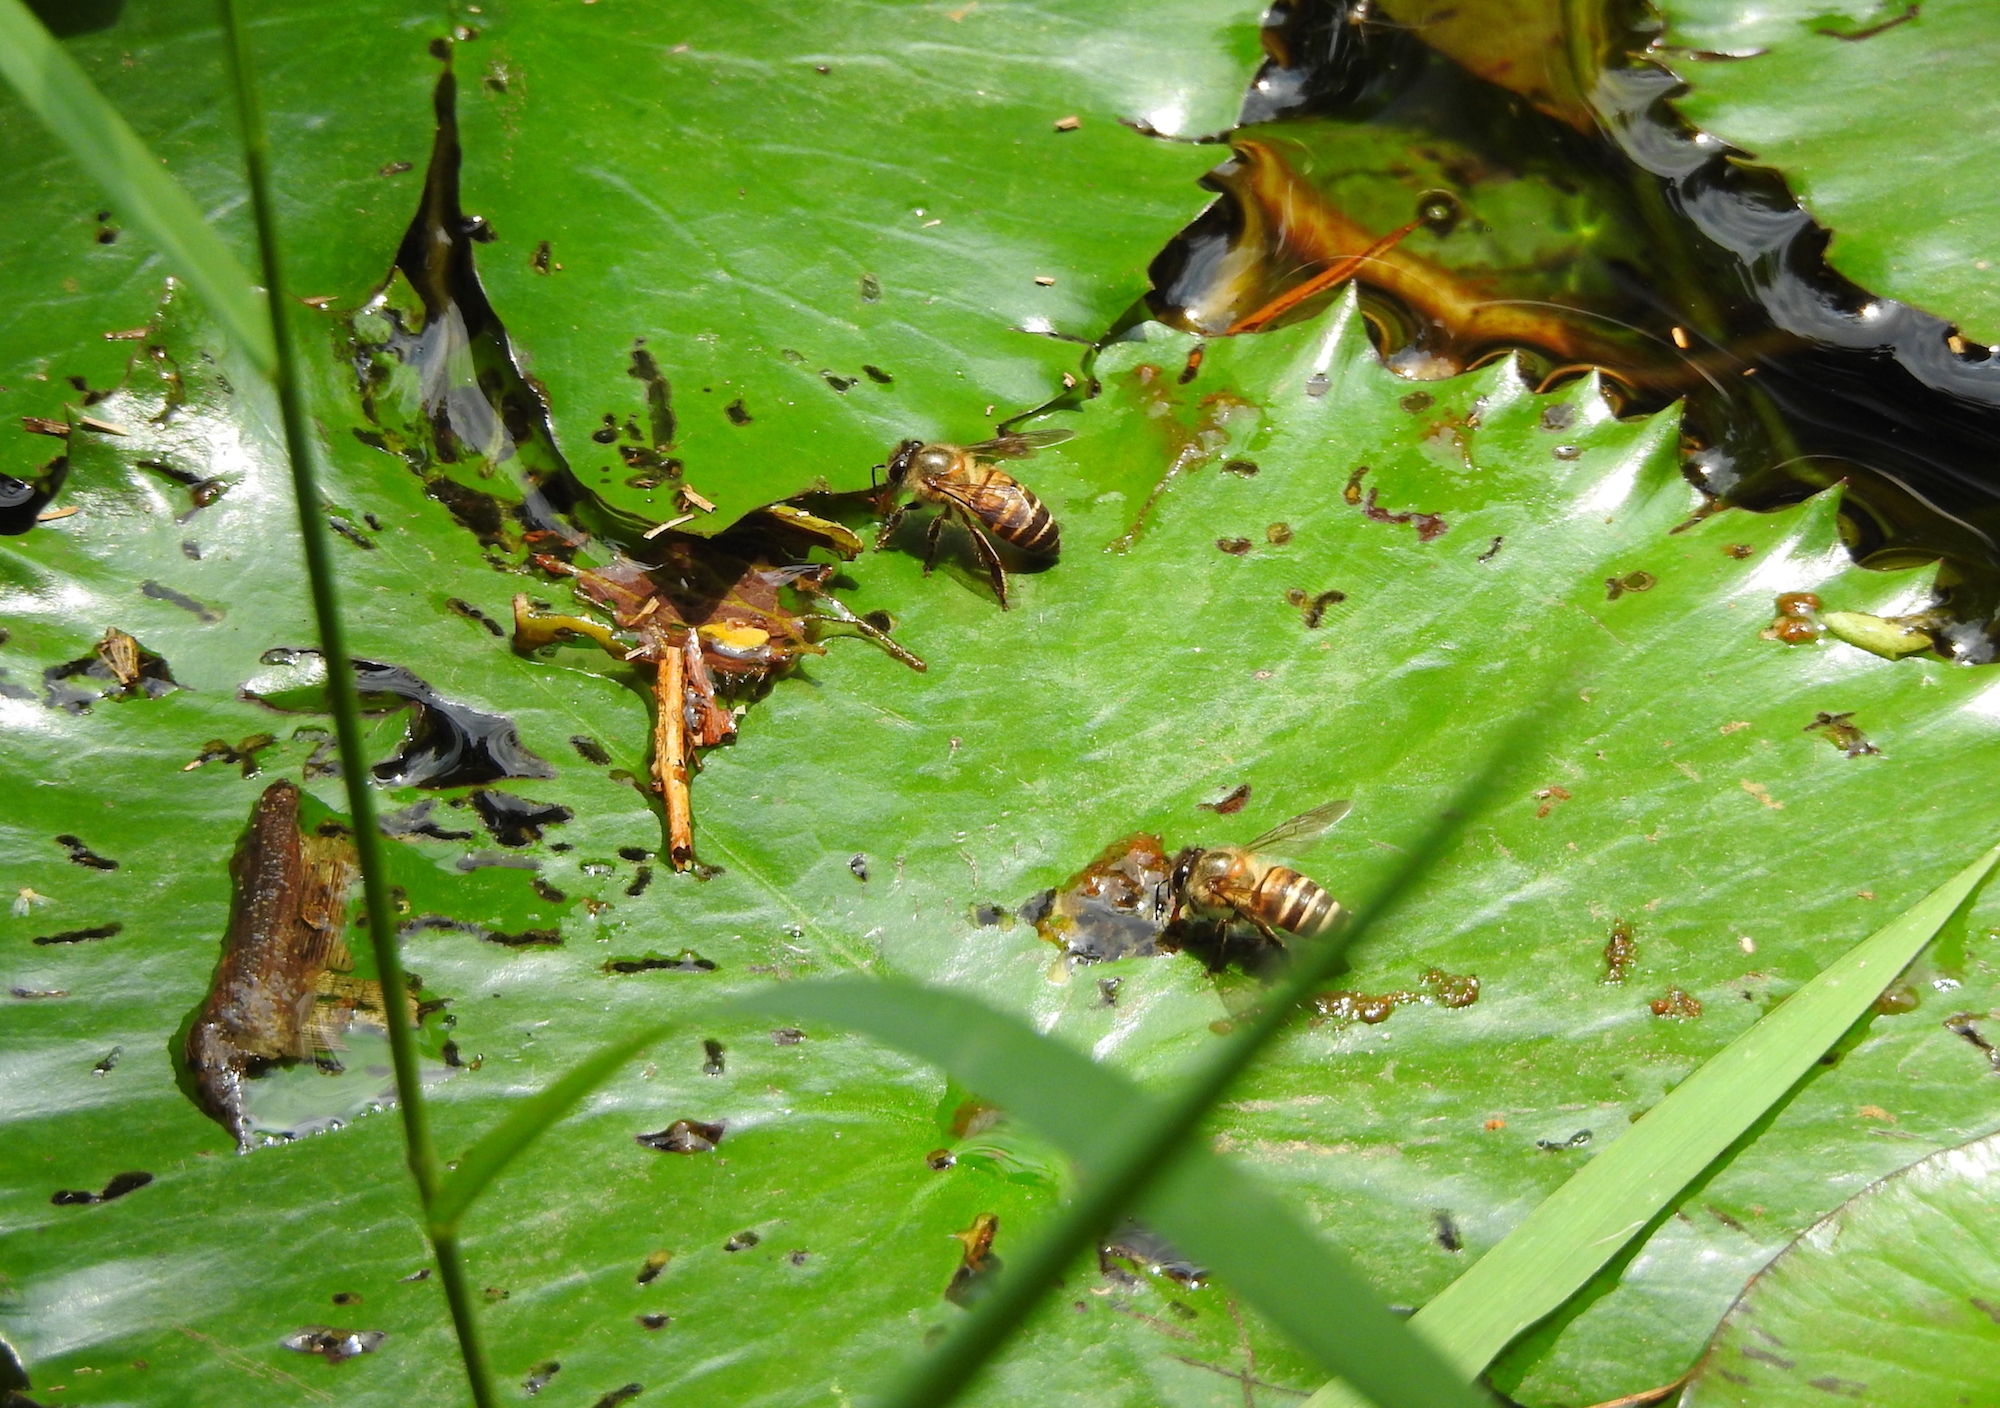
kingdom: Animalia
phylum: Arthropoda
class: Insecta
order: Hymenoptera
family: Apidae
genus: Apis
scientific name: Apis cerana
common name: Honey bee
